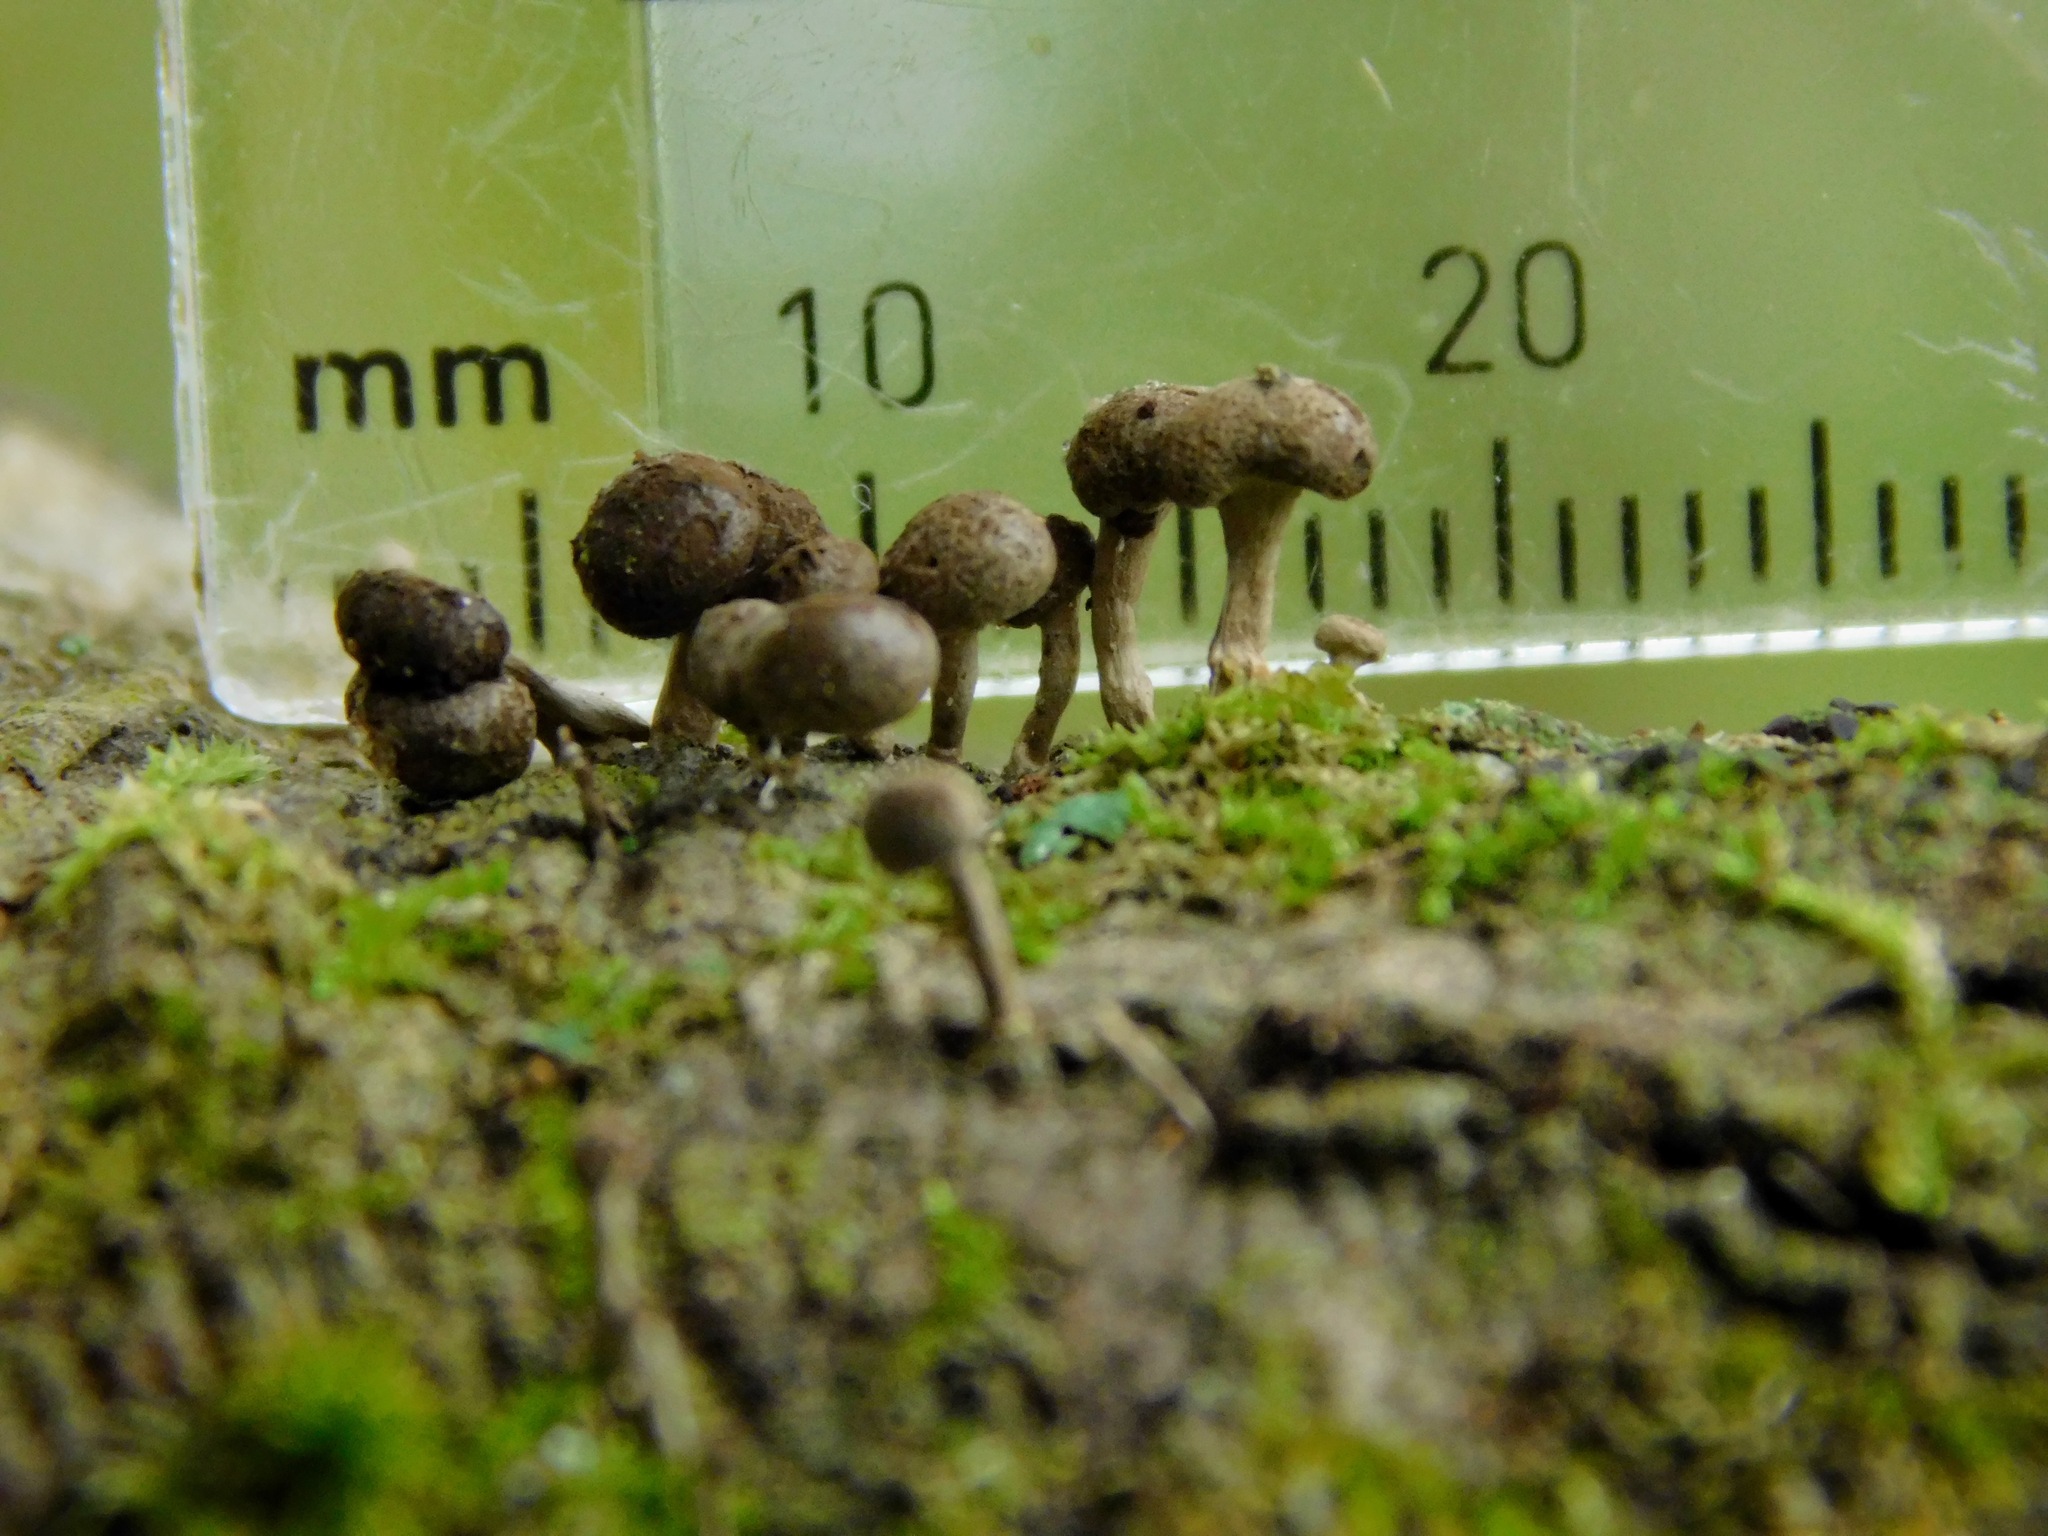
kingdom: Fungi
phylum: Basidiomycota
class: Atractiellomycetes
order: Atractiellales
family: Phleogenaceae
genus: Phleogena
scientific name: Phleogena faginea
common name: Fenugreek stalkball
